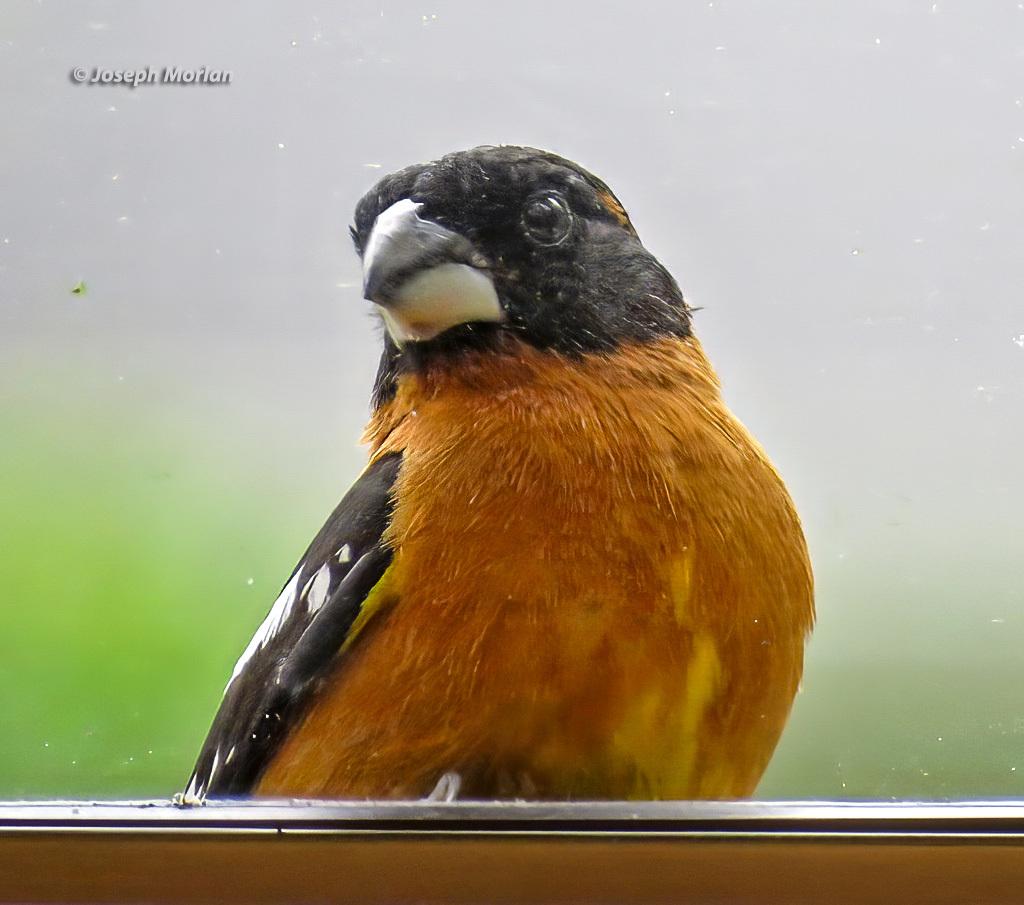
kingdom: Animalia
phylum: Chordata
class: Aves
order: Passeriformes
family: Cardinalidae
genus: Pheucticus
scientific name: Pheucticus melanocephalus
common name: Black-headed grosbeak
